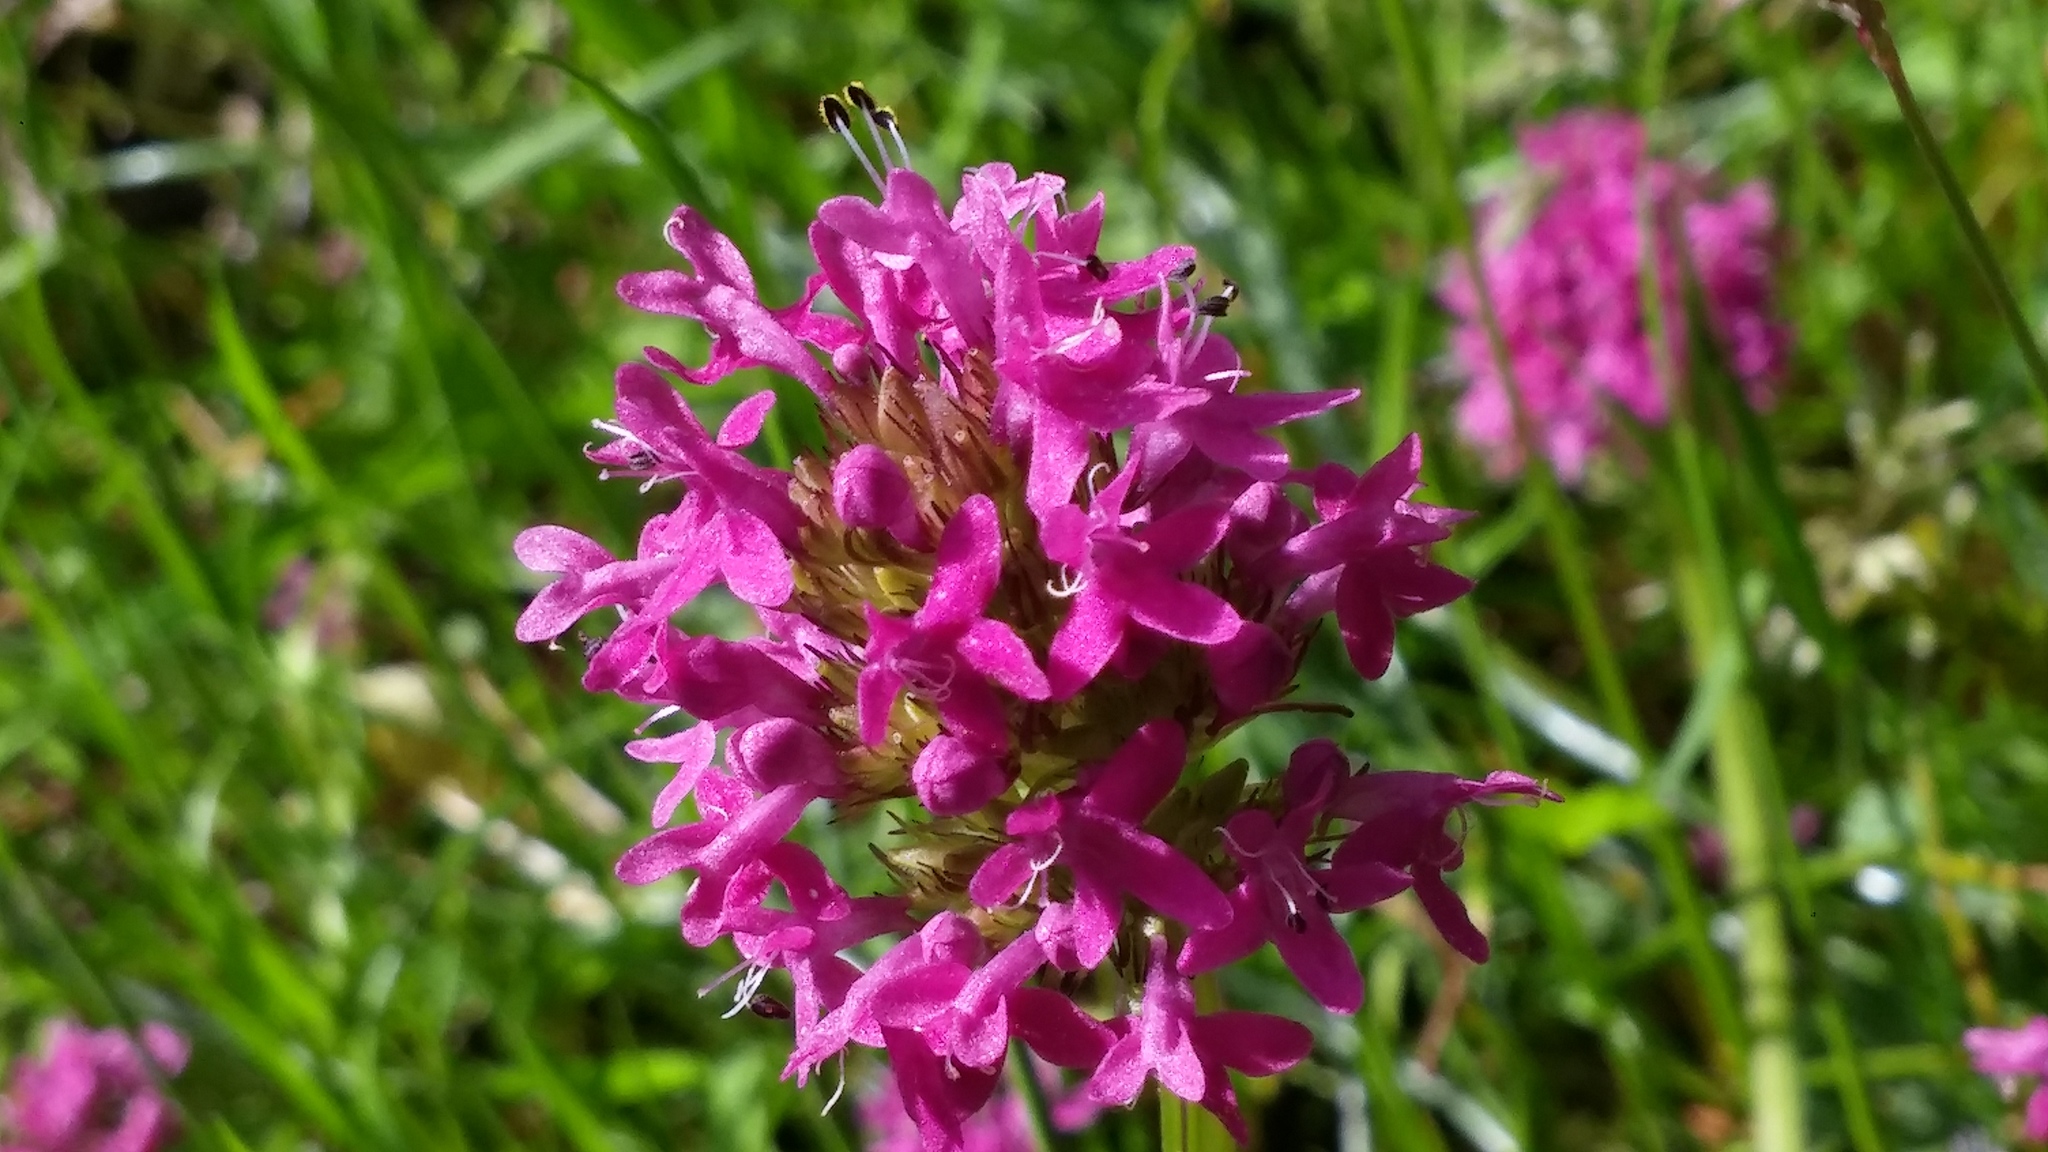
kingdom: Plantae
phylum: Tracheophyta
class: Magnoliopsida
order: Dipsacales
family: Caprifoliaceae
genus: Plectritis
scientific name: Plectritis congesta
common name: Pink plectritis
